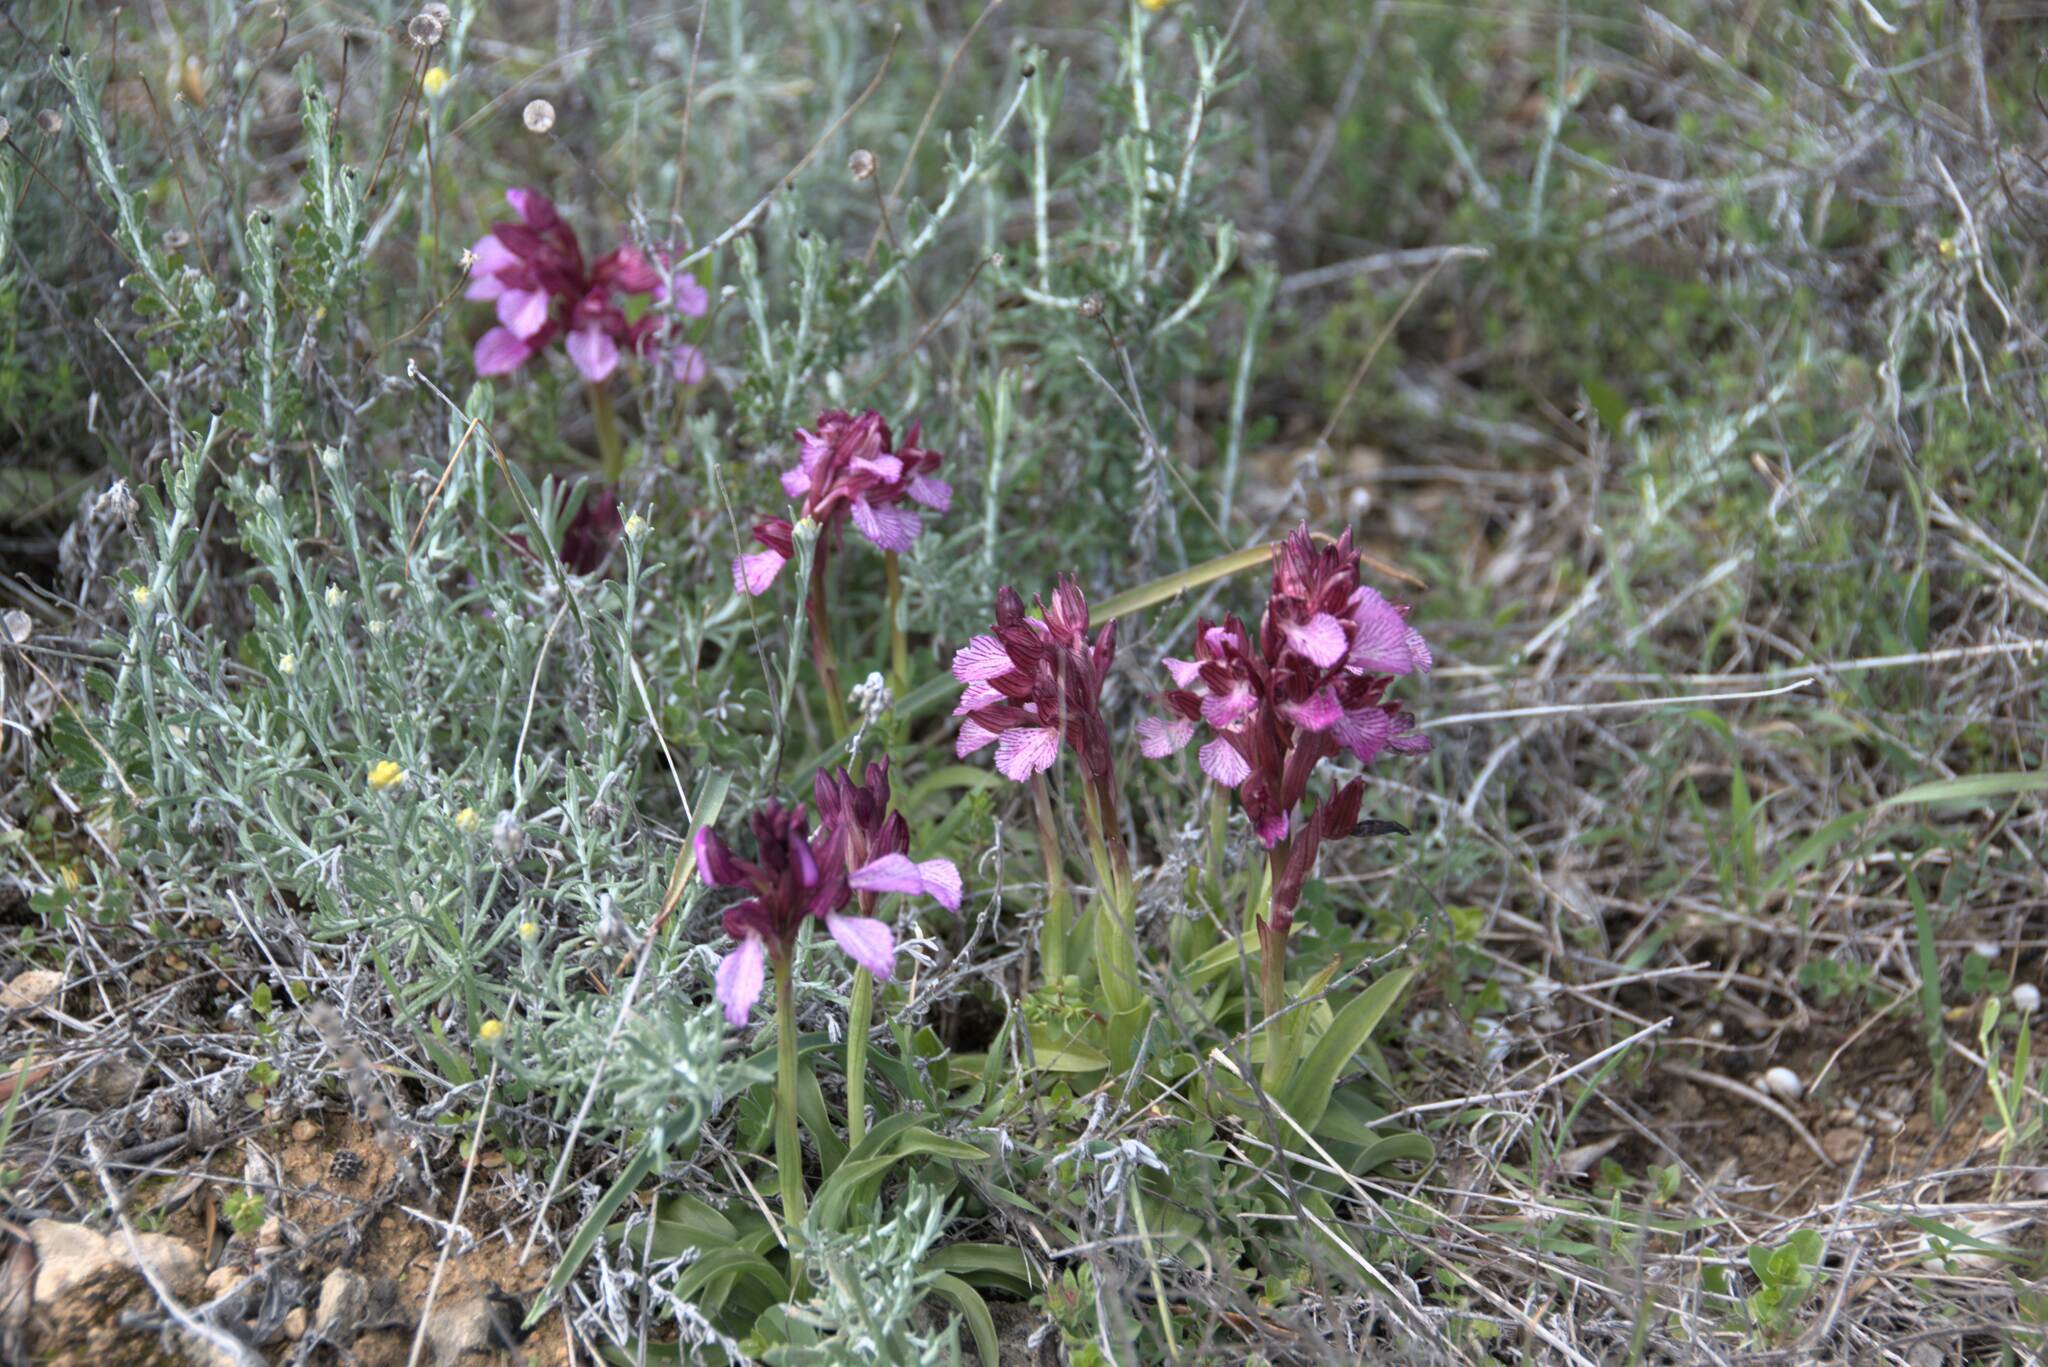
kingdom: Plantae
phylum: Tracheophyta
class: Liliopsida
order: Asparagales
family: Orchidaceae
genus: Anacamptis
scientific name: Anacamptis papilionacea
